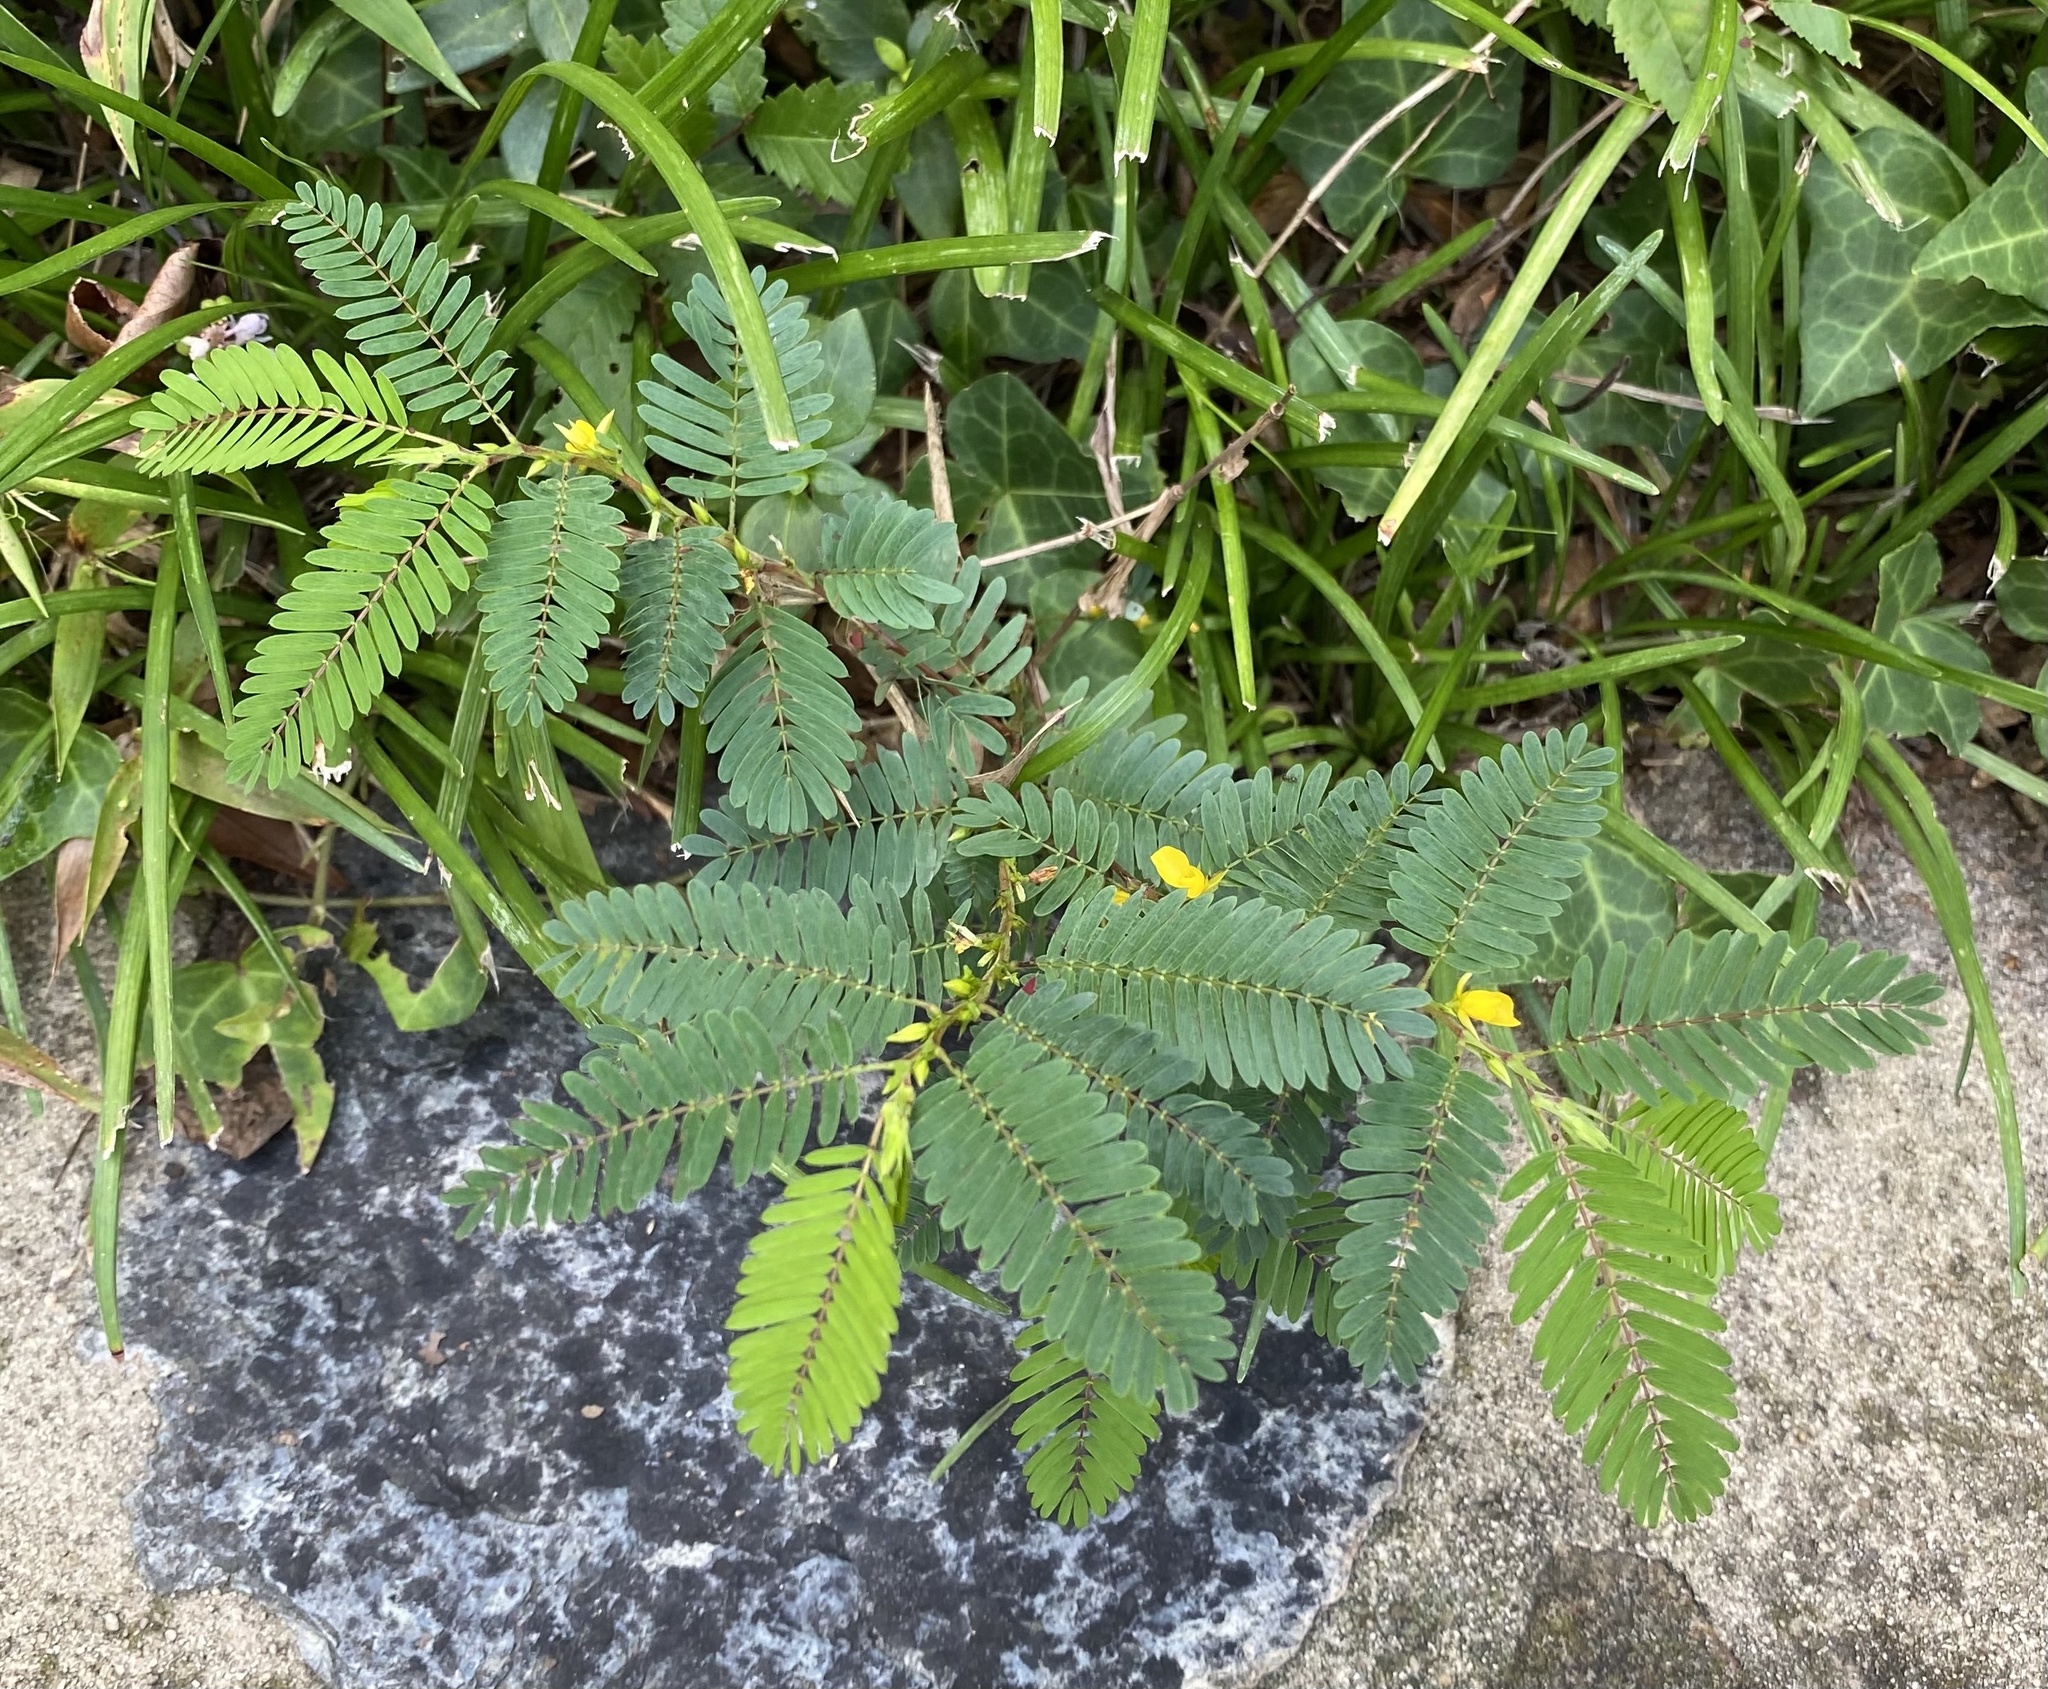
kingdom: Plantae
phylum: Tracheophyta
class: Magnoliopsida
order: Fabales
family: Fabaceae
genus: Chamaecrista
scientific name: Chamaecrista nictitans
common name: Sensitive cassia
